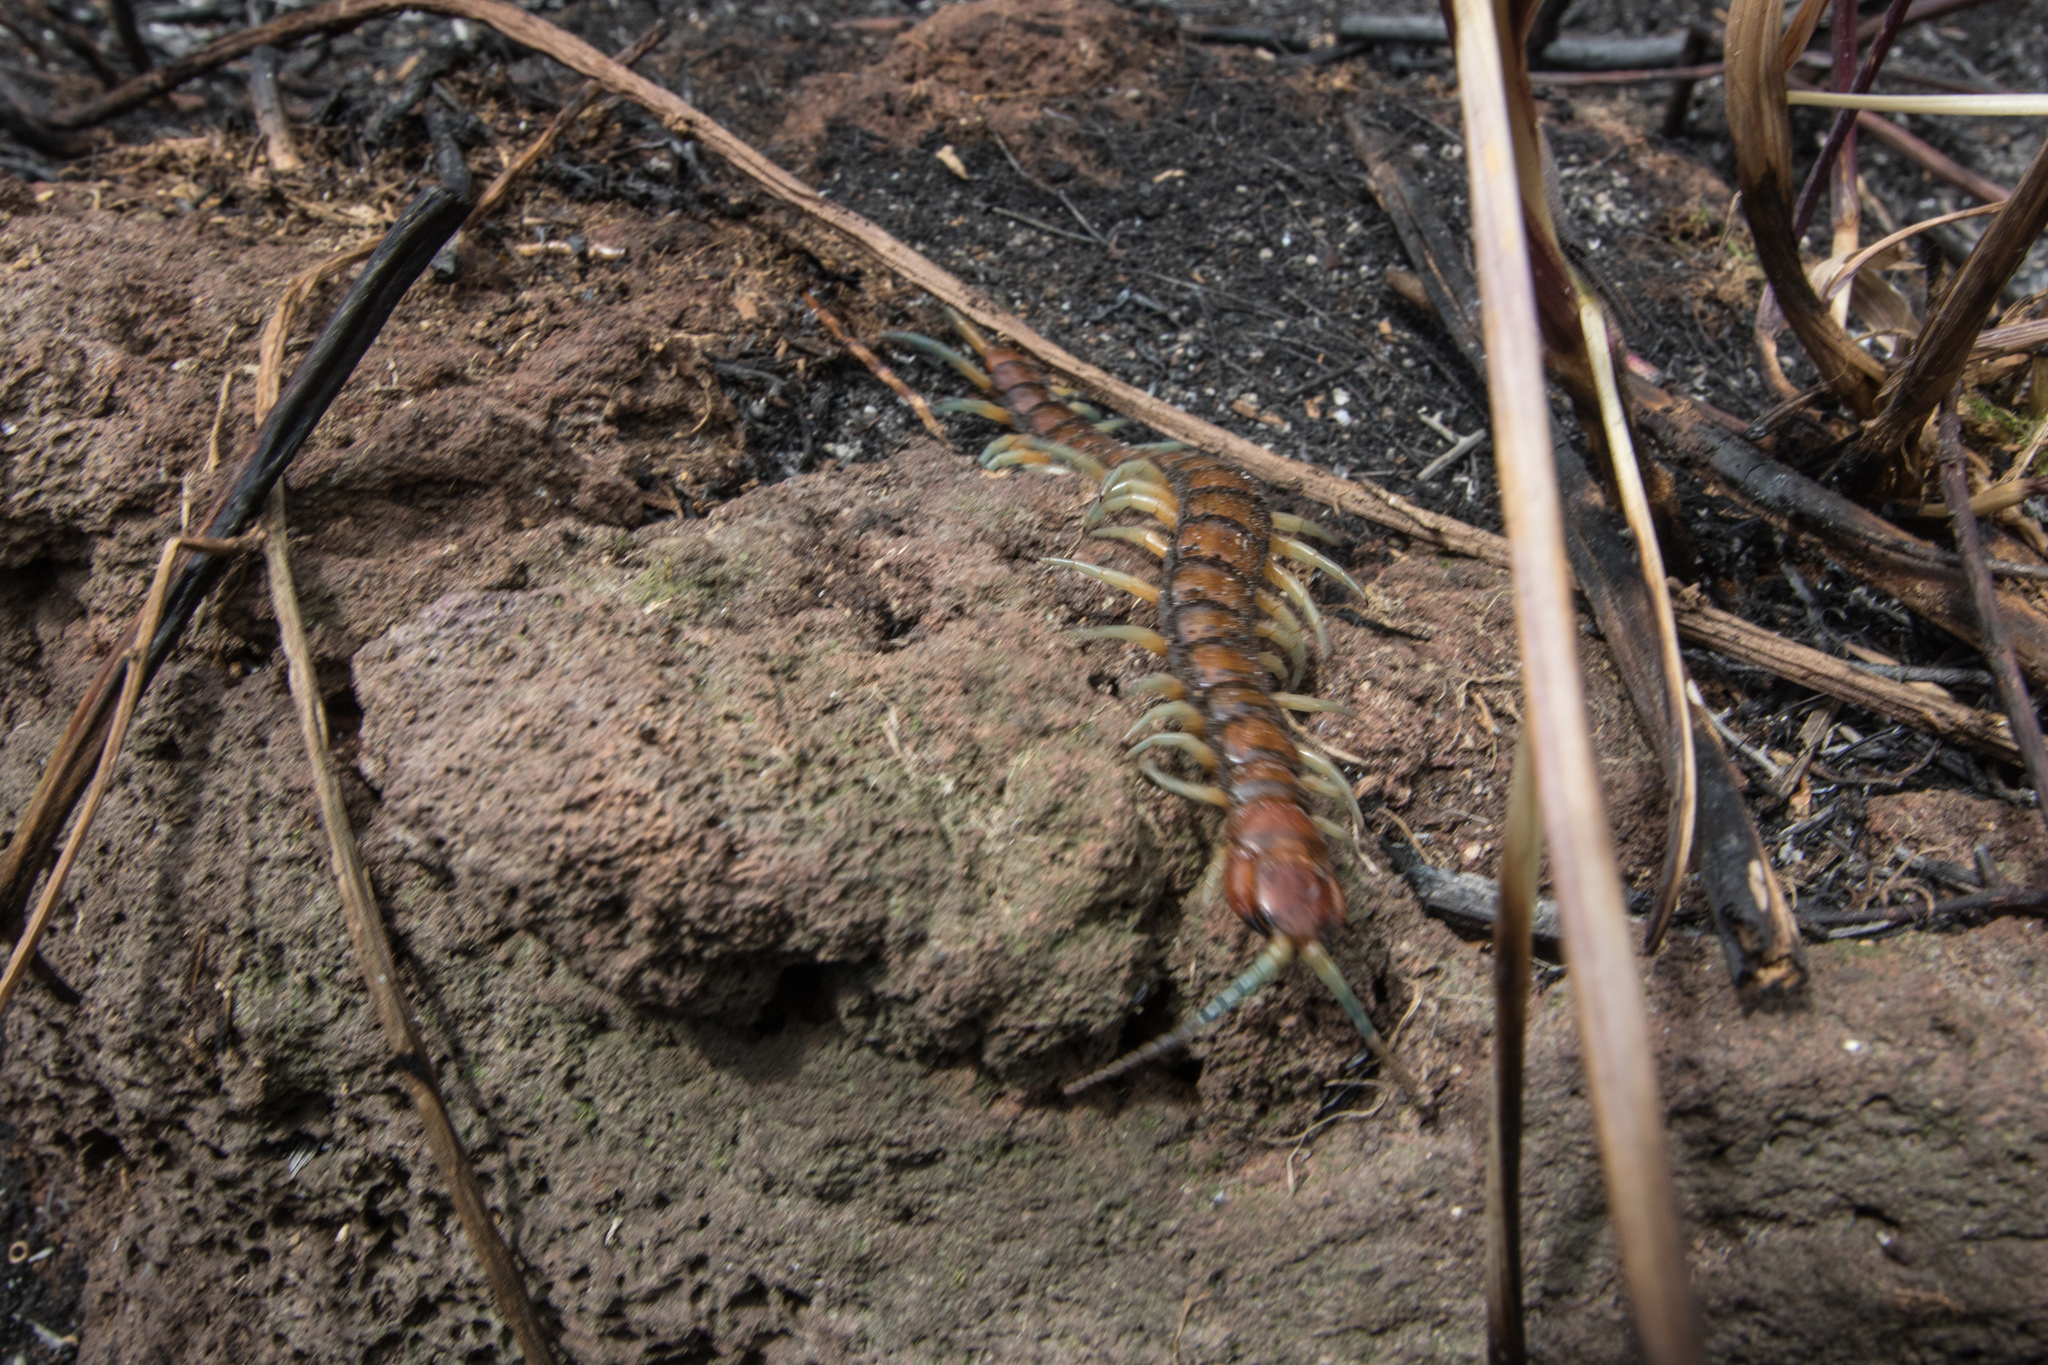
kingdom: Animalia
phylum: Arthropoda
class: Chilopoda
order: Scolopendromorpha
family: Scolopendridae
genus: Cormocephalus
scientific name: Cormocephalus rubriceps
